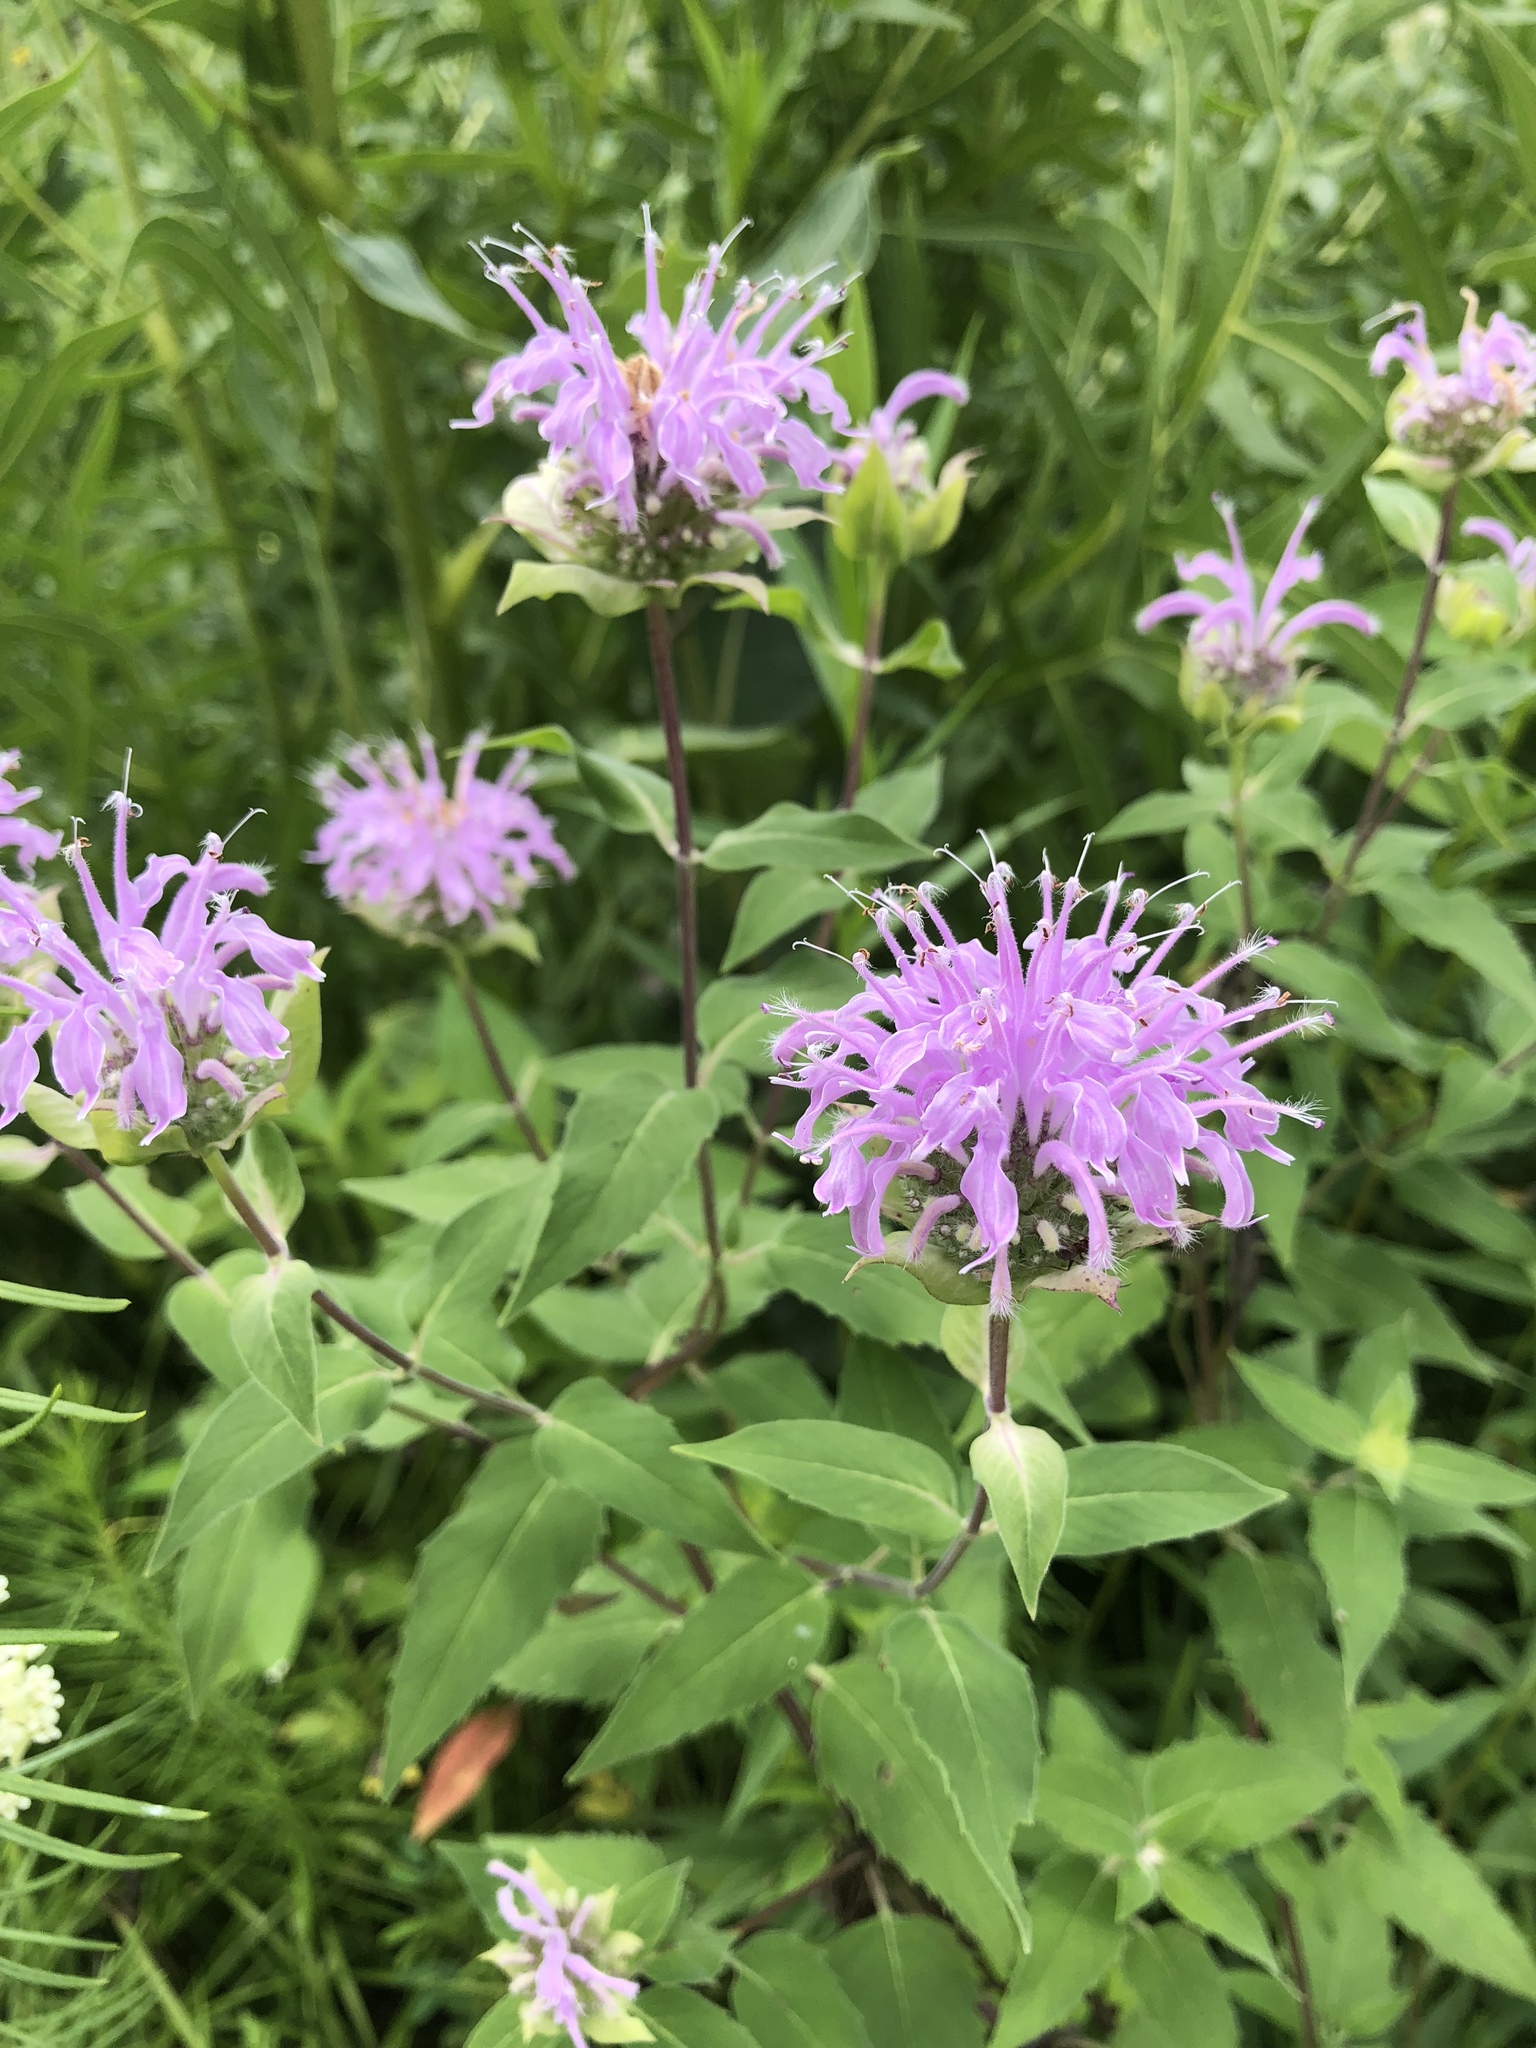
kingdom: Plantae
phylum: Tracheophyta
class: Magnoliopsida
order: Lamiales
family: Lamiaceae
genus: Monarda
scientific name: Monarda fistulosa
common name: Purple beebalm
